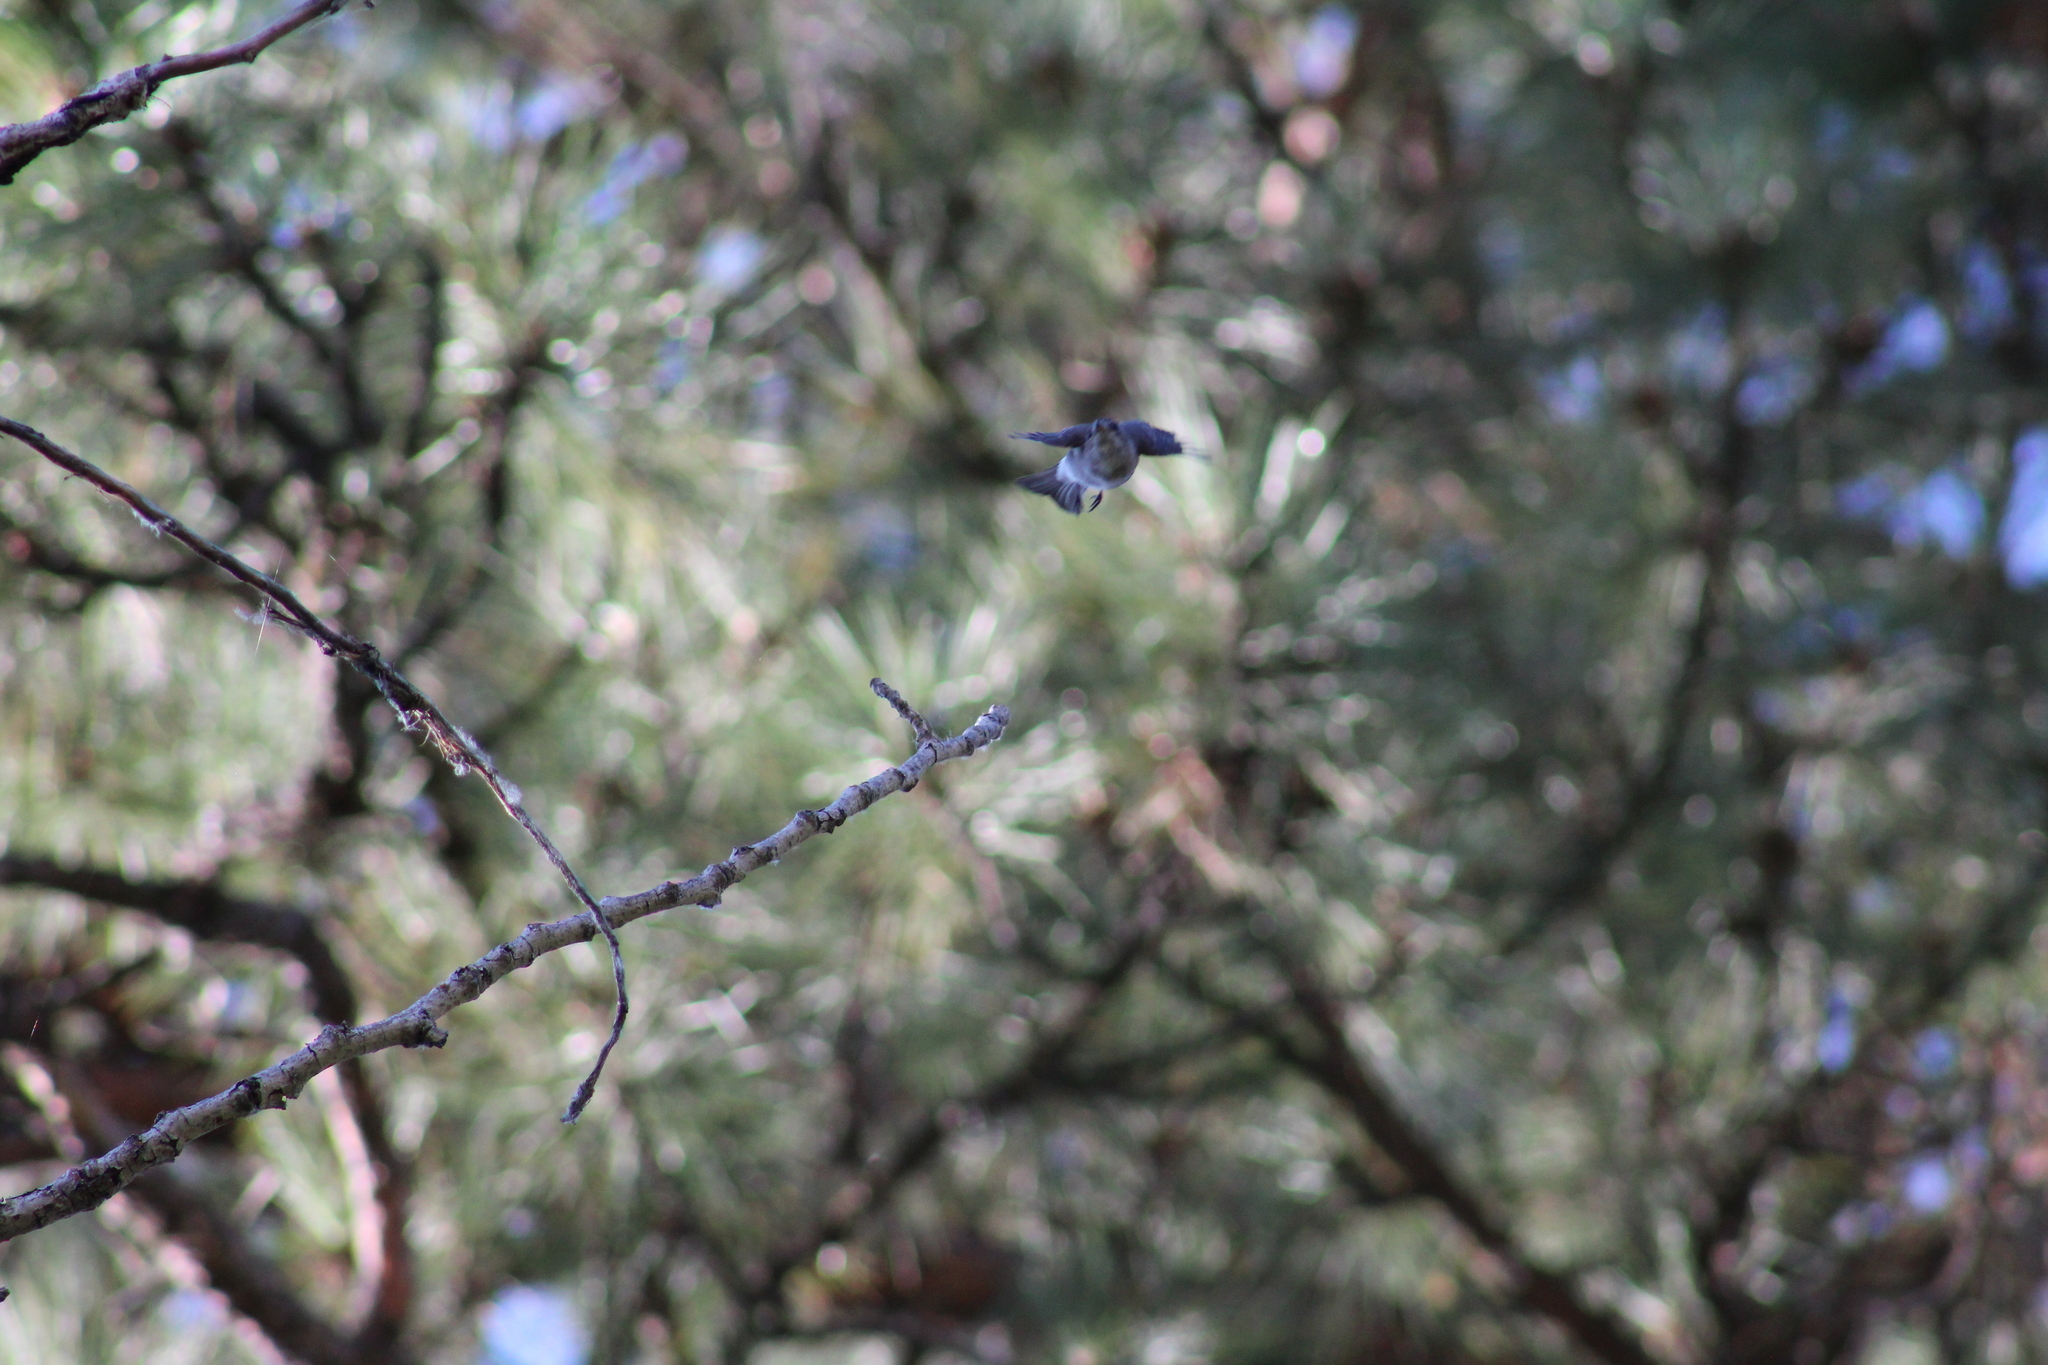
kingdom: Animalia
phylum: Chordata
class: Aves
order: Passeriformes
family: Sittidae
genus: Sitta
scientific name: Sitta pygmaea
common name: Pygmy nuthatch
